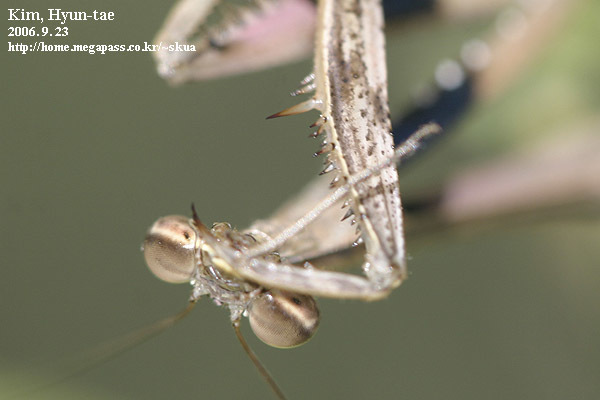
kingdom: Animalia
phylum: Arthropoda
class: Insecta
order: Mantodea
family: Mantidae
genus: Statilia
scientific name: Statilia maculata
